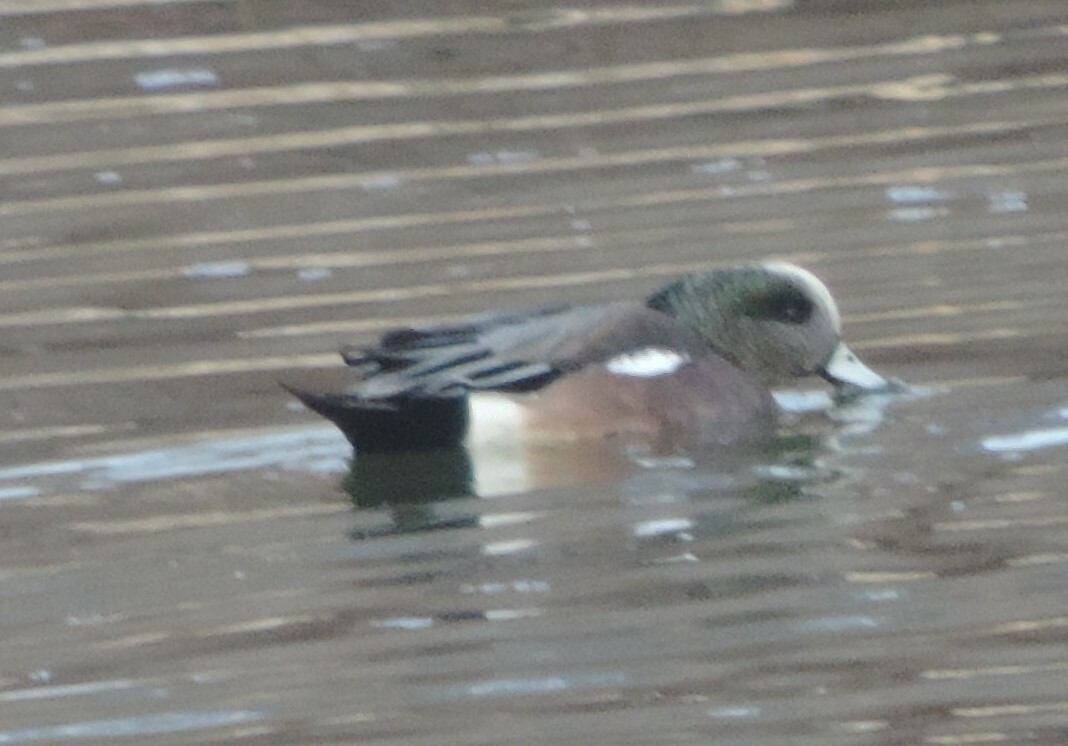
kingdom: Animalia
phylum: Chordata
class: Aves
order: Anseriformes
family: Anatidae
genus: Mareca
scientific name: Mareca americana
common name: American wigeon
